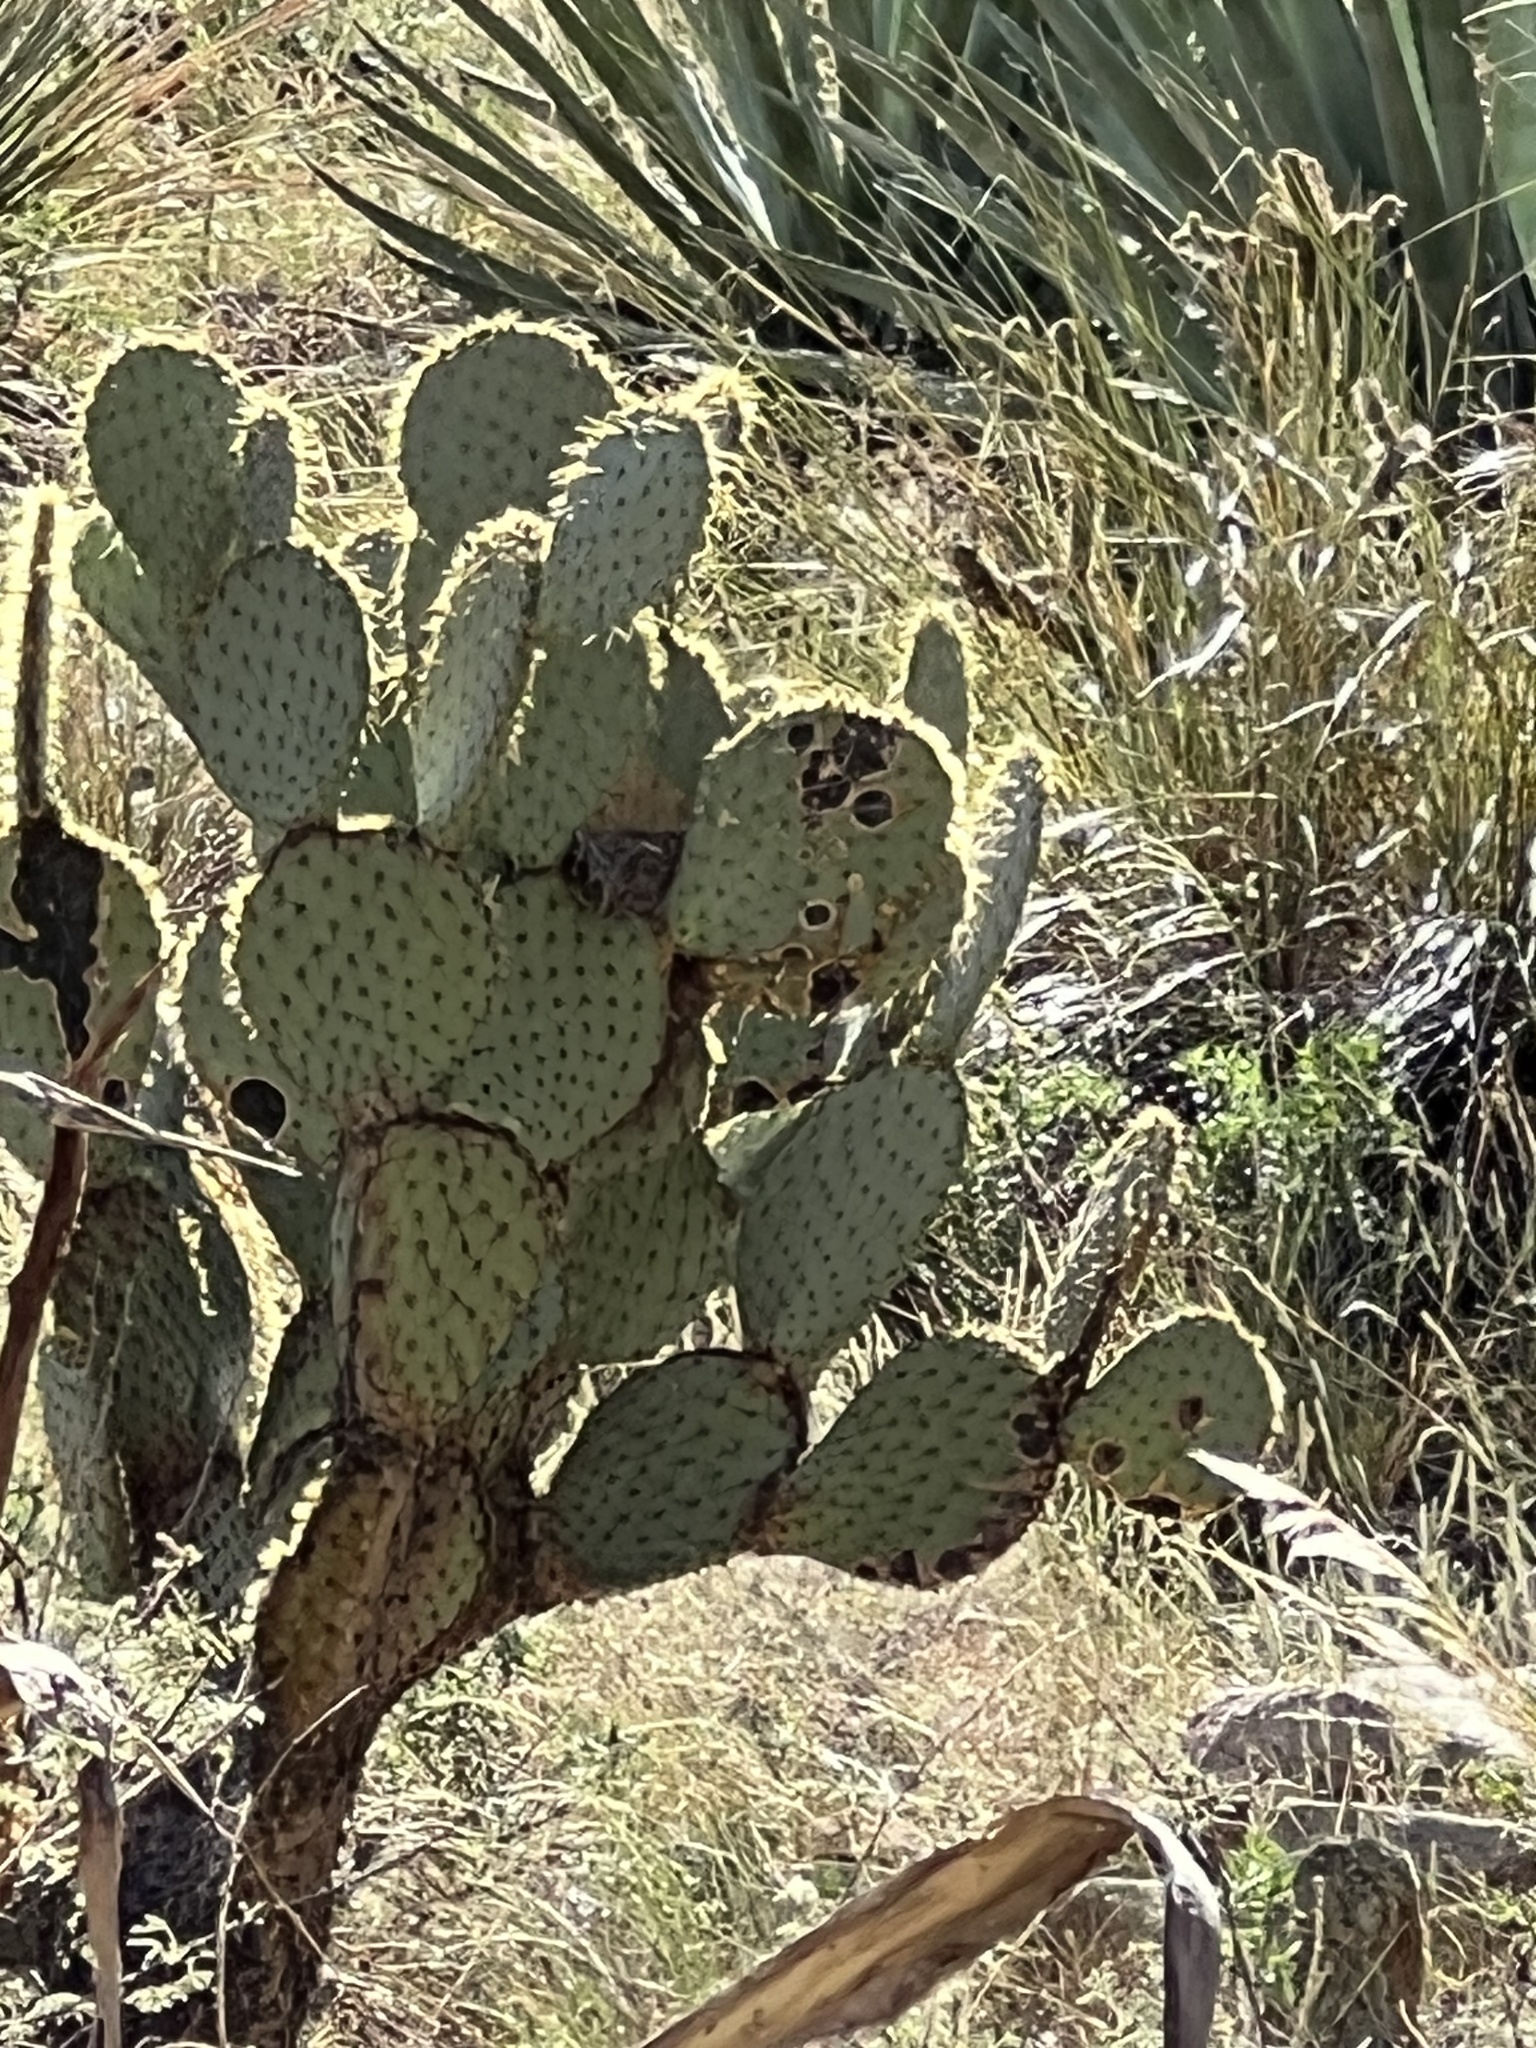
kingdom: Plantae
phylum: Tracheophyta
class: Magnoliopsida
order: Caryophyllales
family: Cactaceae
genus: Opuntia
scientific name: Opuntia chlorotica
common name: Dollar-joint prickly-pear
